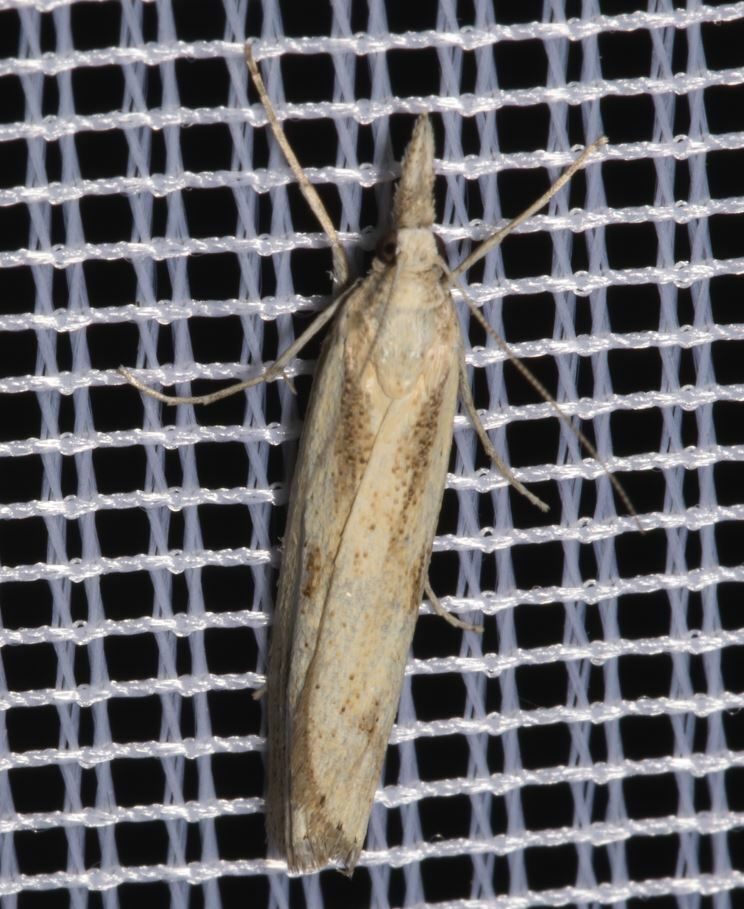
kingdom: Animalia
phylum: Arthropoda
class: Insecta
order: Lepidoptera
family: Crambidae
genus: Agriphila
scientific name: Agriphila inquinatella
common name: Barred grass-veneer
